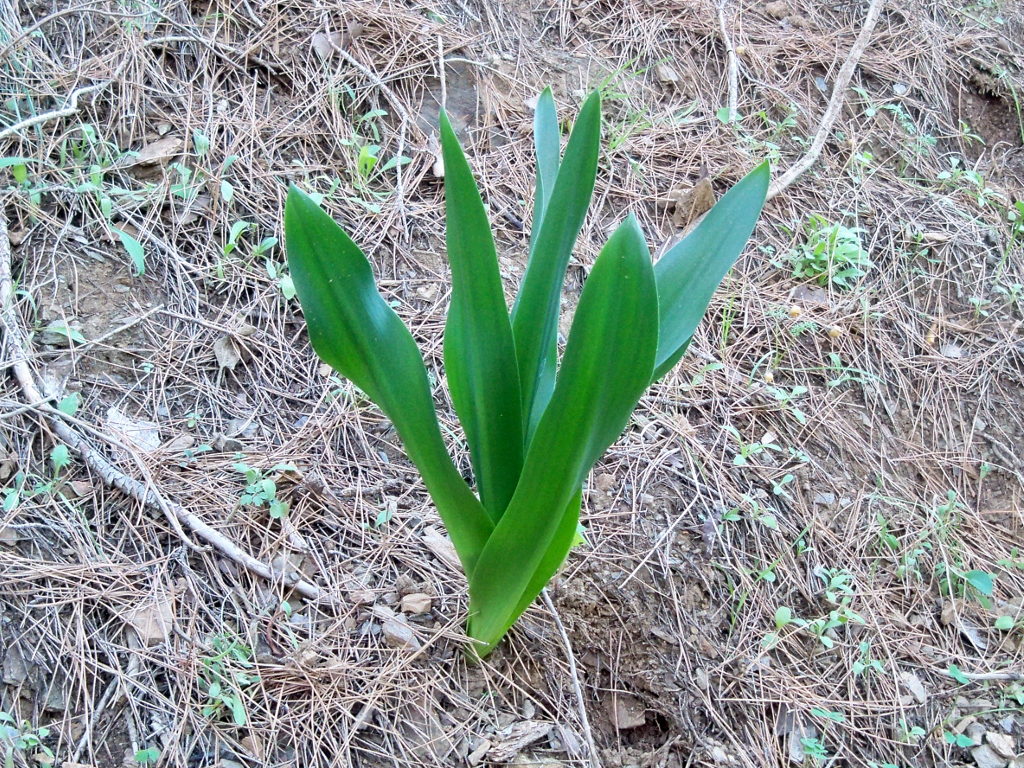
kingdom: Plantae
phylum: Tracheophyta
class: Liliopsida
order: Asparagales
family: Asparagaceae
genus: Drimia
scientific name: Drimia maritima
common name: Maritime squill
